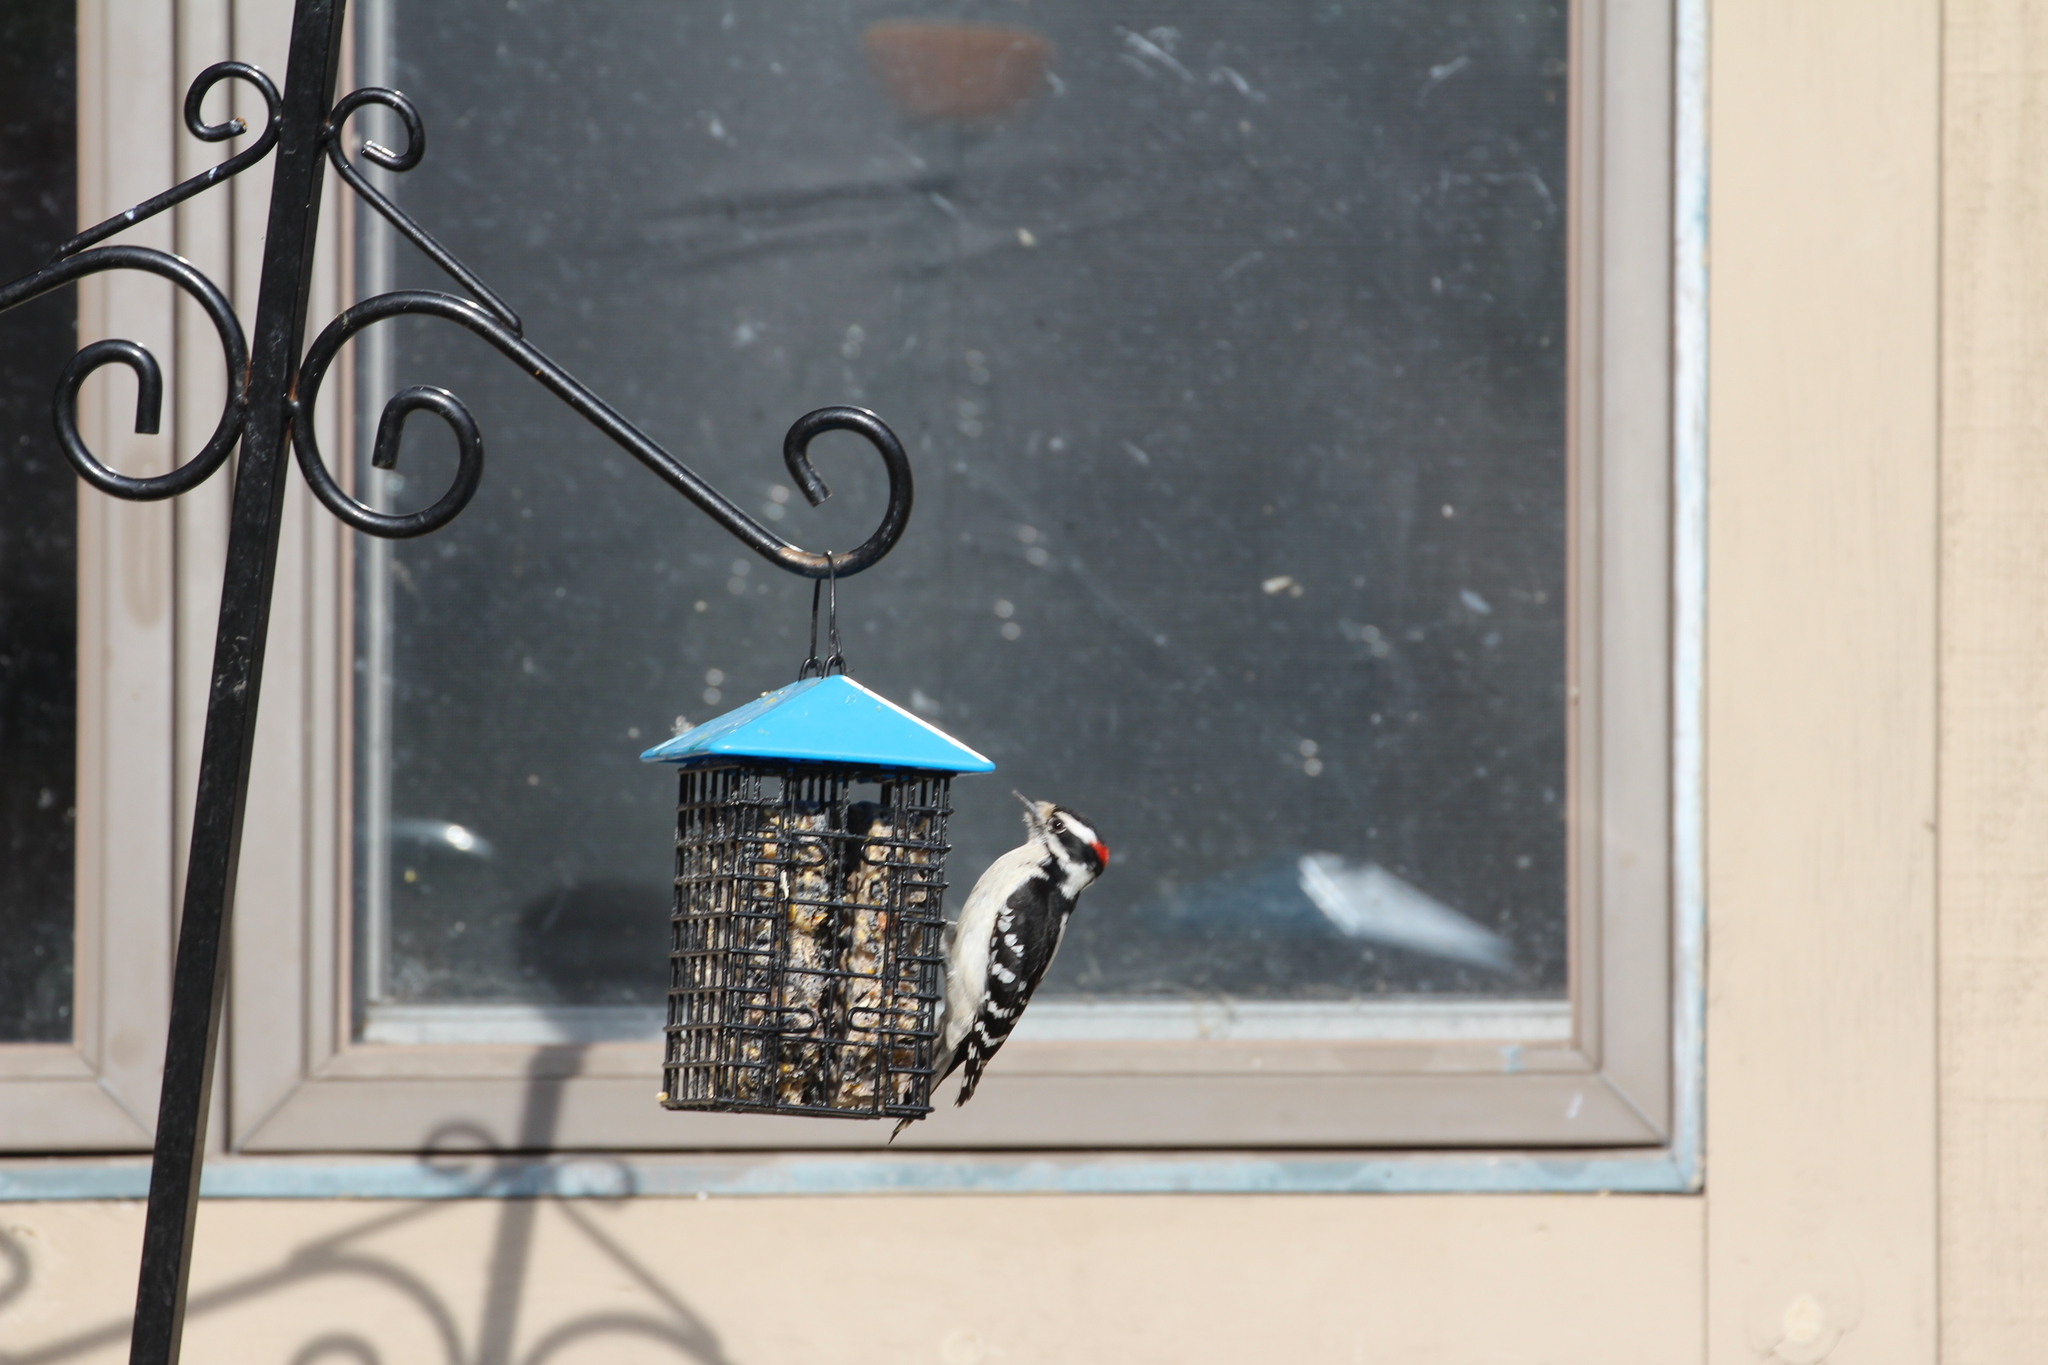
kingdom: Animalia
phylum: Chordata
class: Aves
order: Piciformes
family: Picidae
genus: Dryobates
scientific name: Dryobates pubescens
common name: Downy woodpecker
